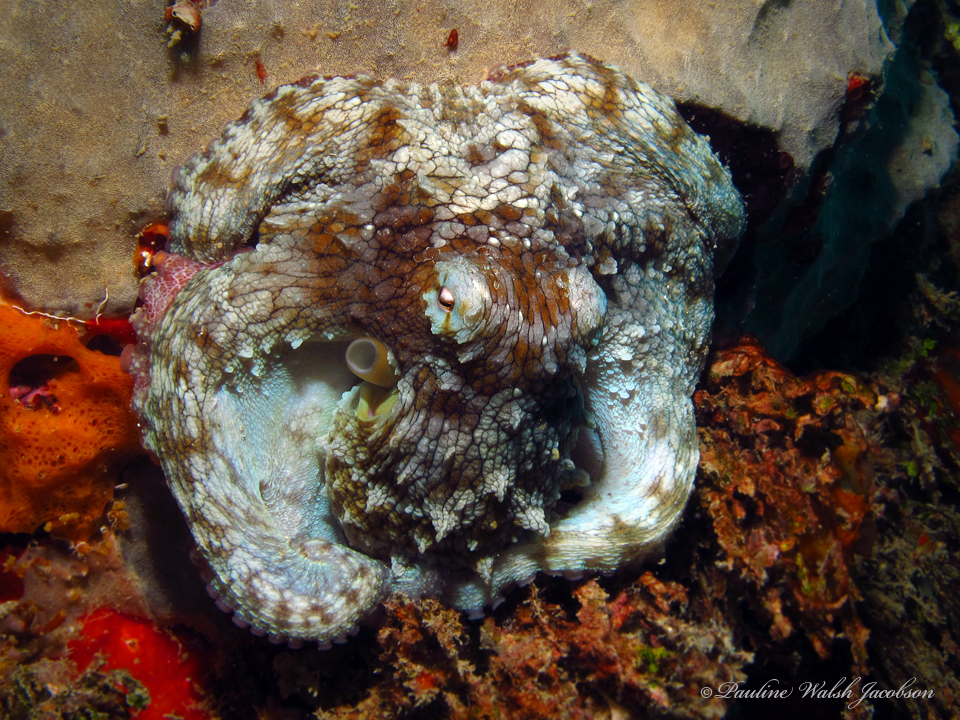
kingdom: Animalia
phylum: Mollusca
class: Cephalopoda
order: Octopoda
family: Octopodidae
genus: Octopus
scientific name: Octopus insularis
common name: Brazil reef octopus
